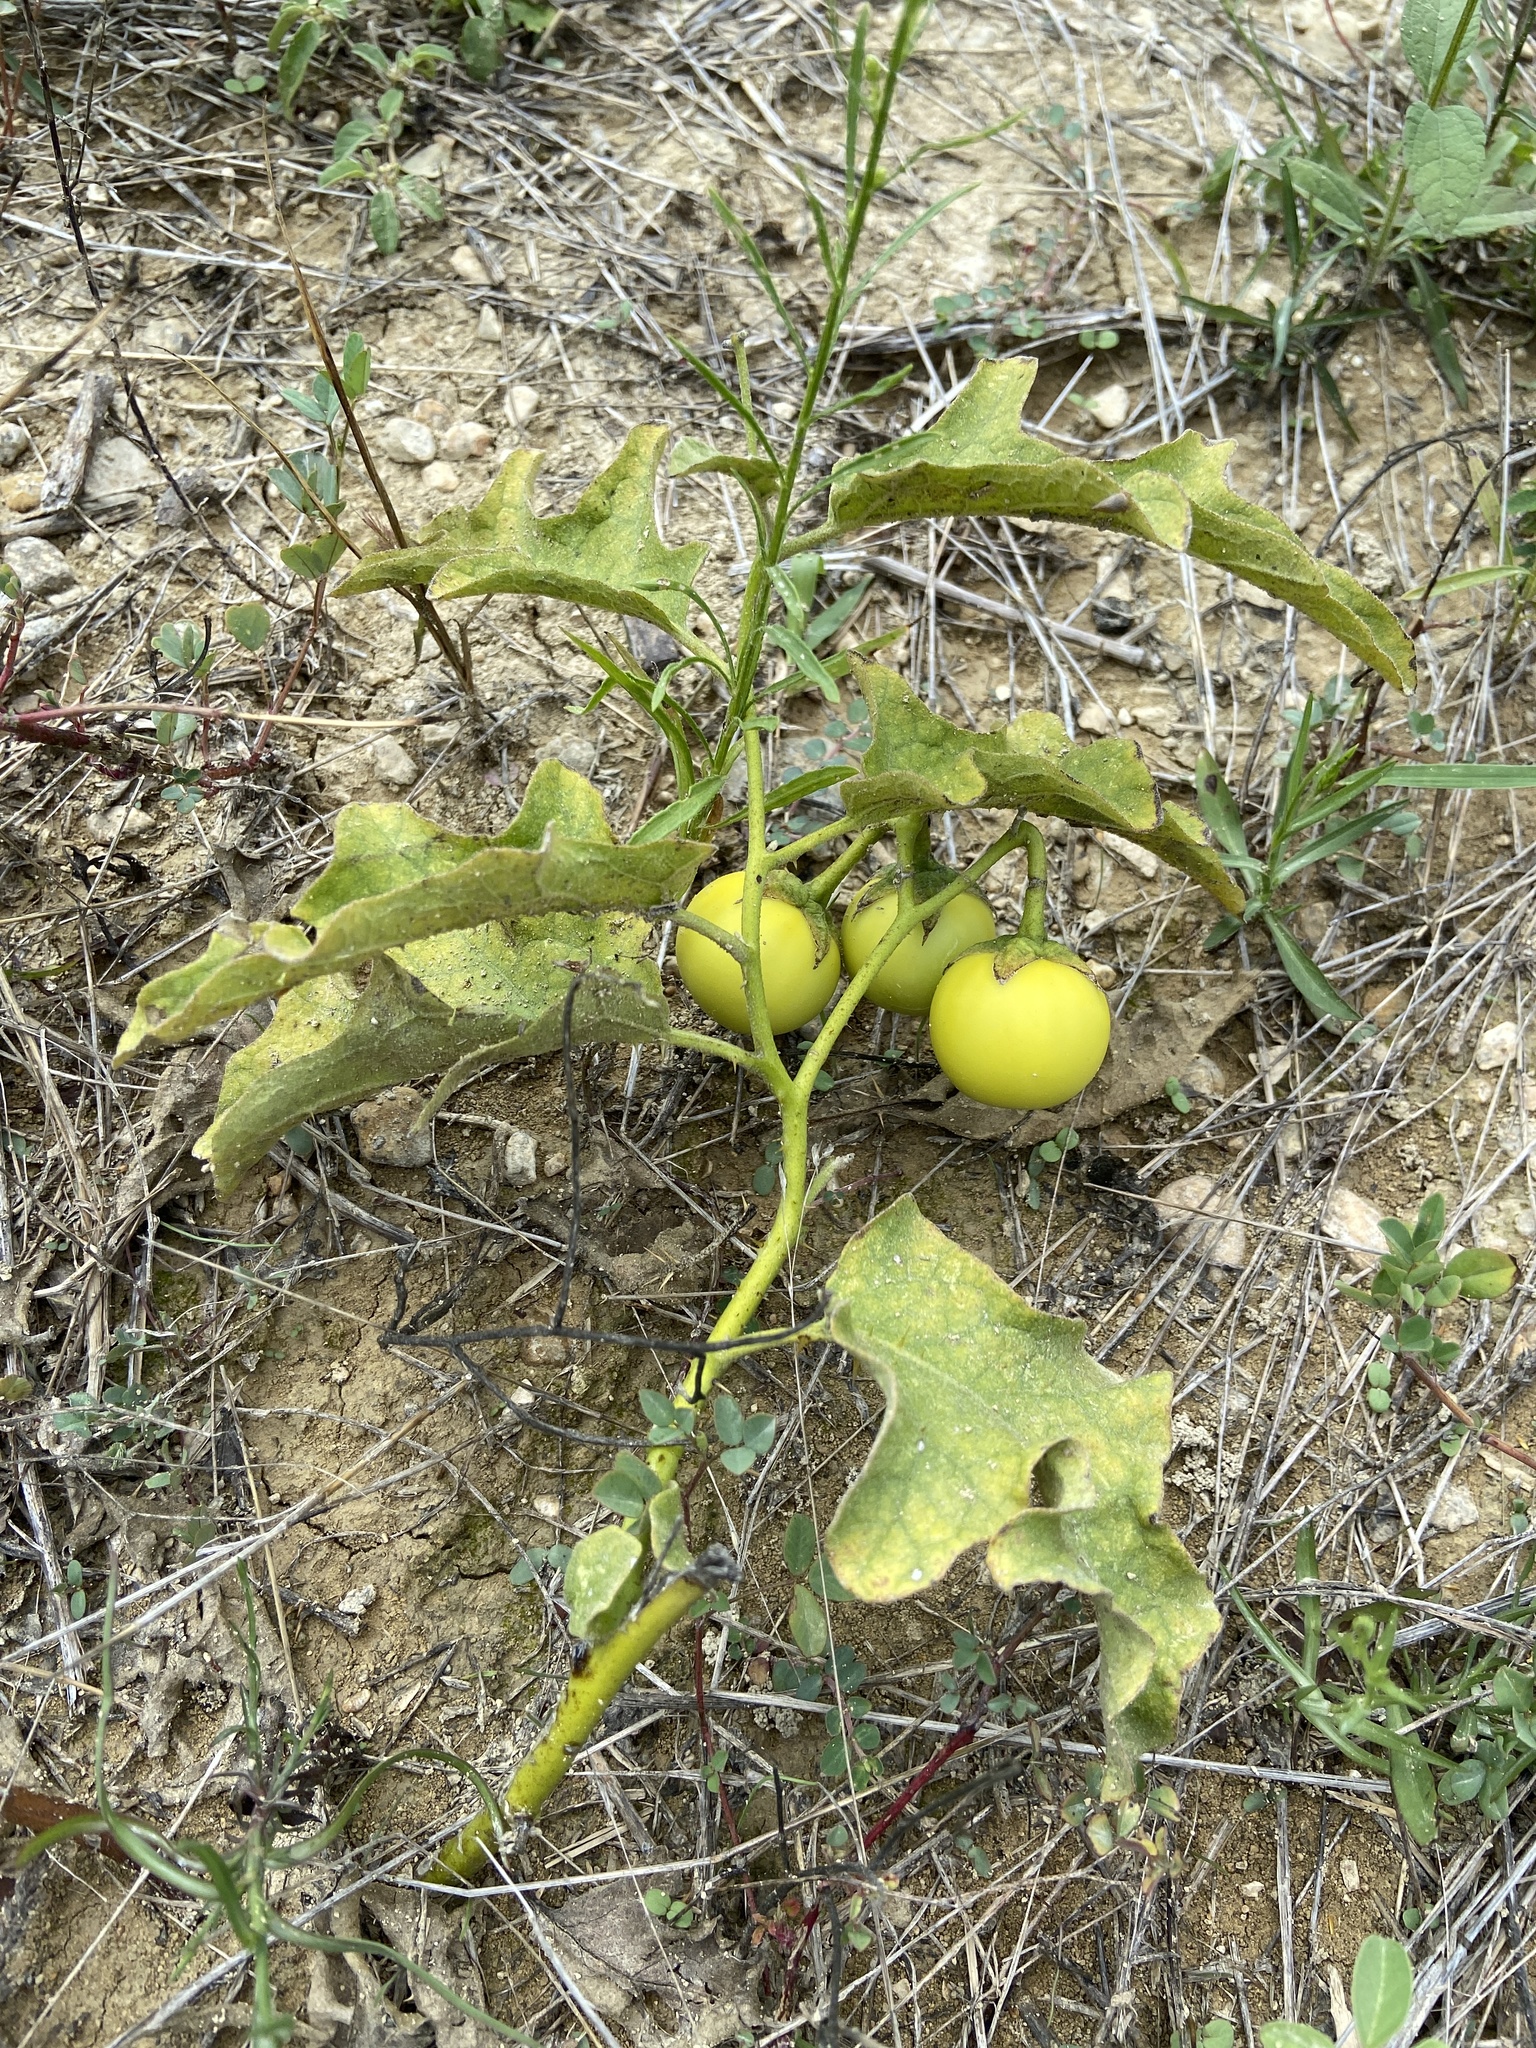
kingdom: Plantae
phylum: Tracheophyta
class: Magnoliopsida
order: Solanales
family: Solanaceae
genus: Solanum
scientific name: Solanum dimidiatum
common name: Carolina horse-nettle
